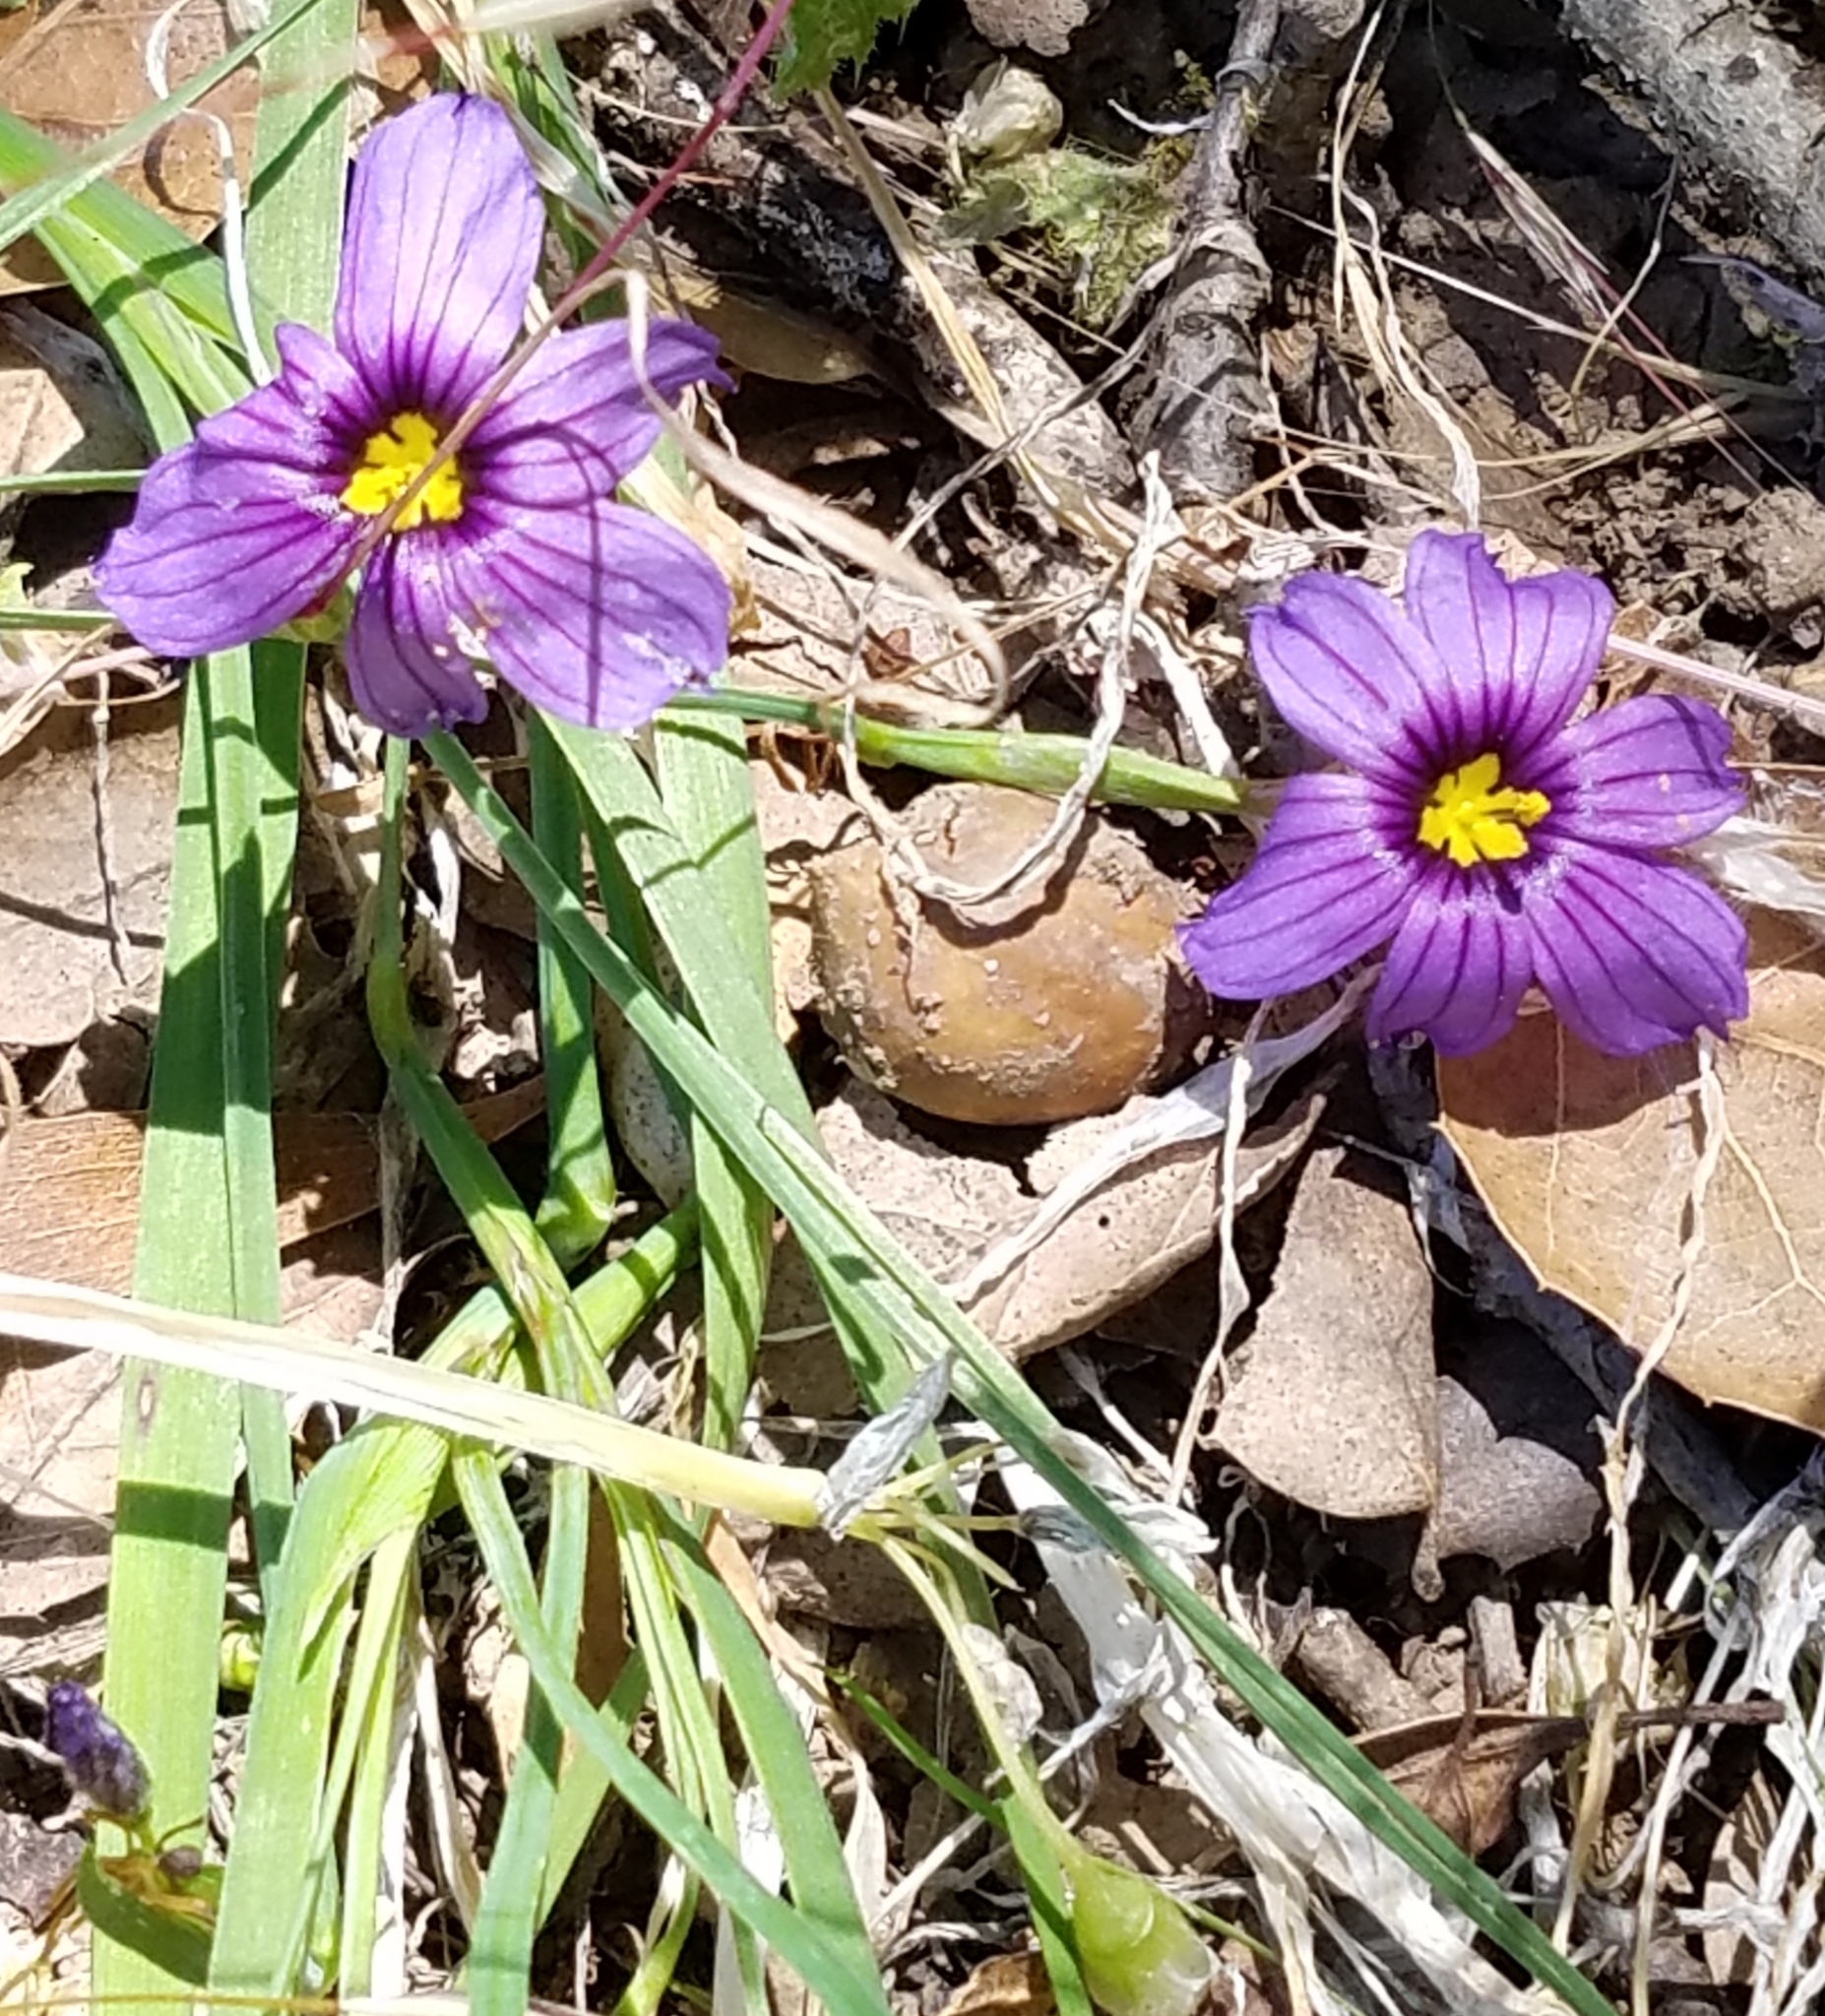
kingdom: Plantae
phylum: Tracheophyta
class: Liliopsida
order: Asparagales
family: Iridaceae
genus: Sisyrinchium
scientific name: Sisyrinchium bellum
